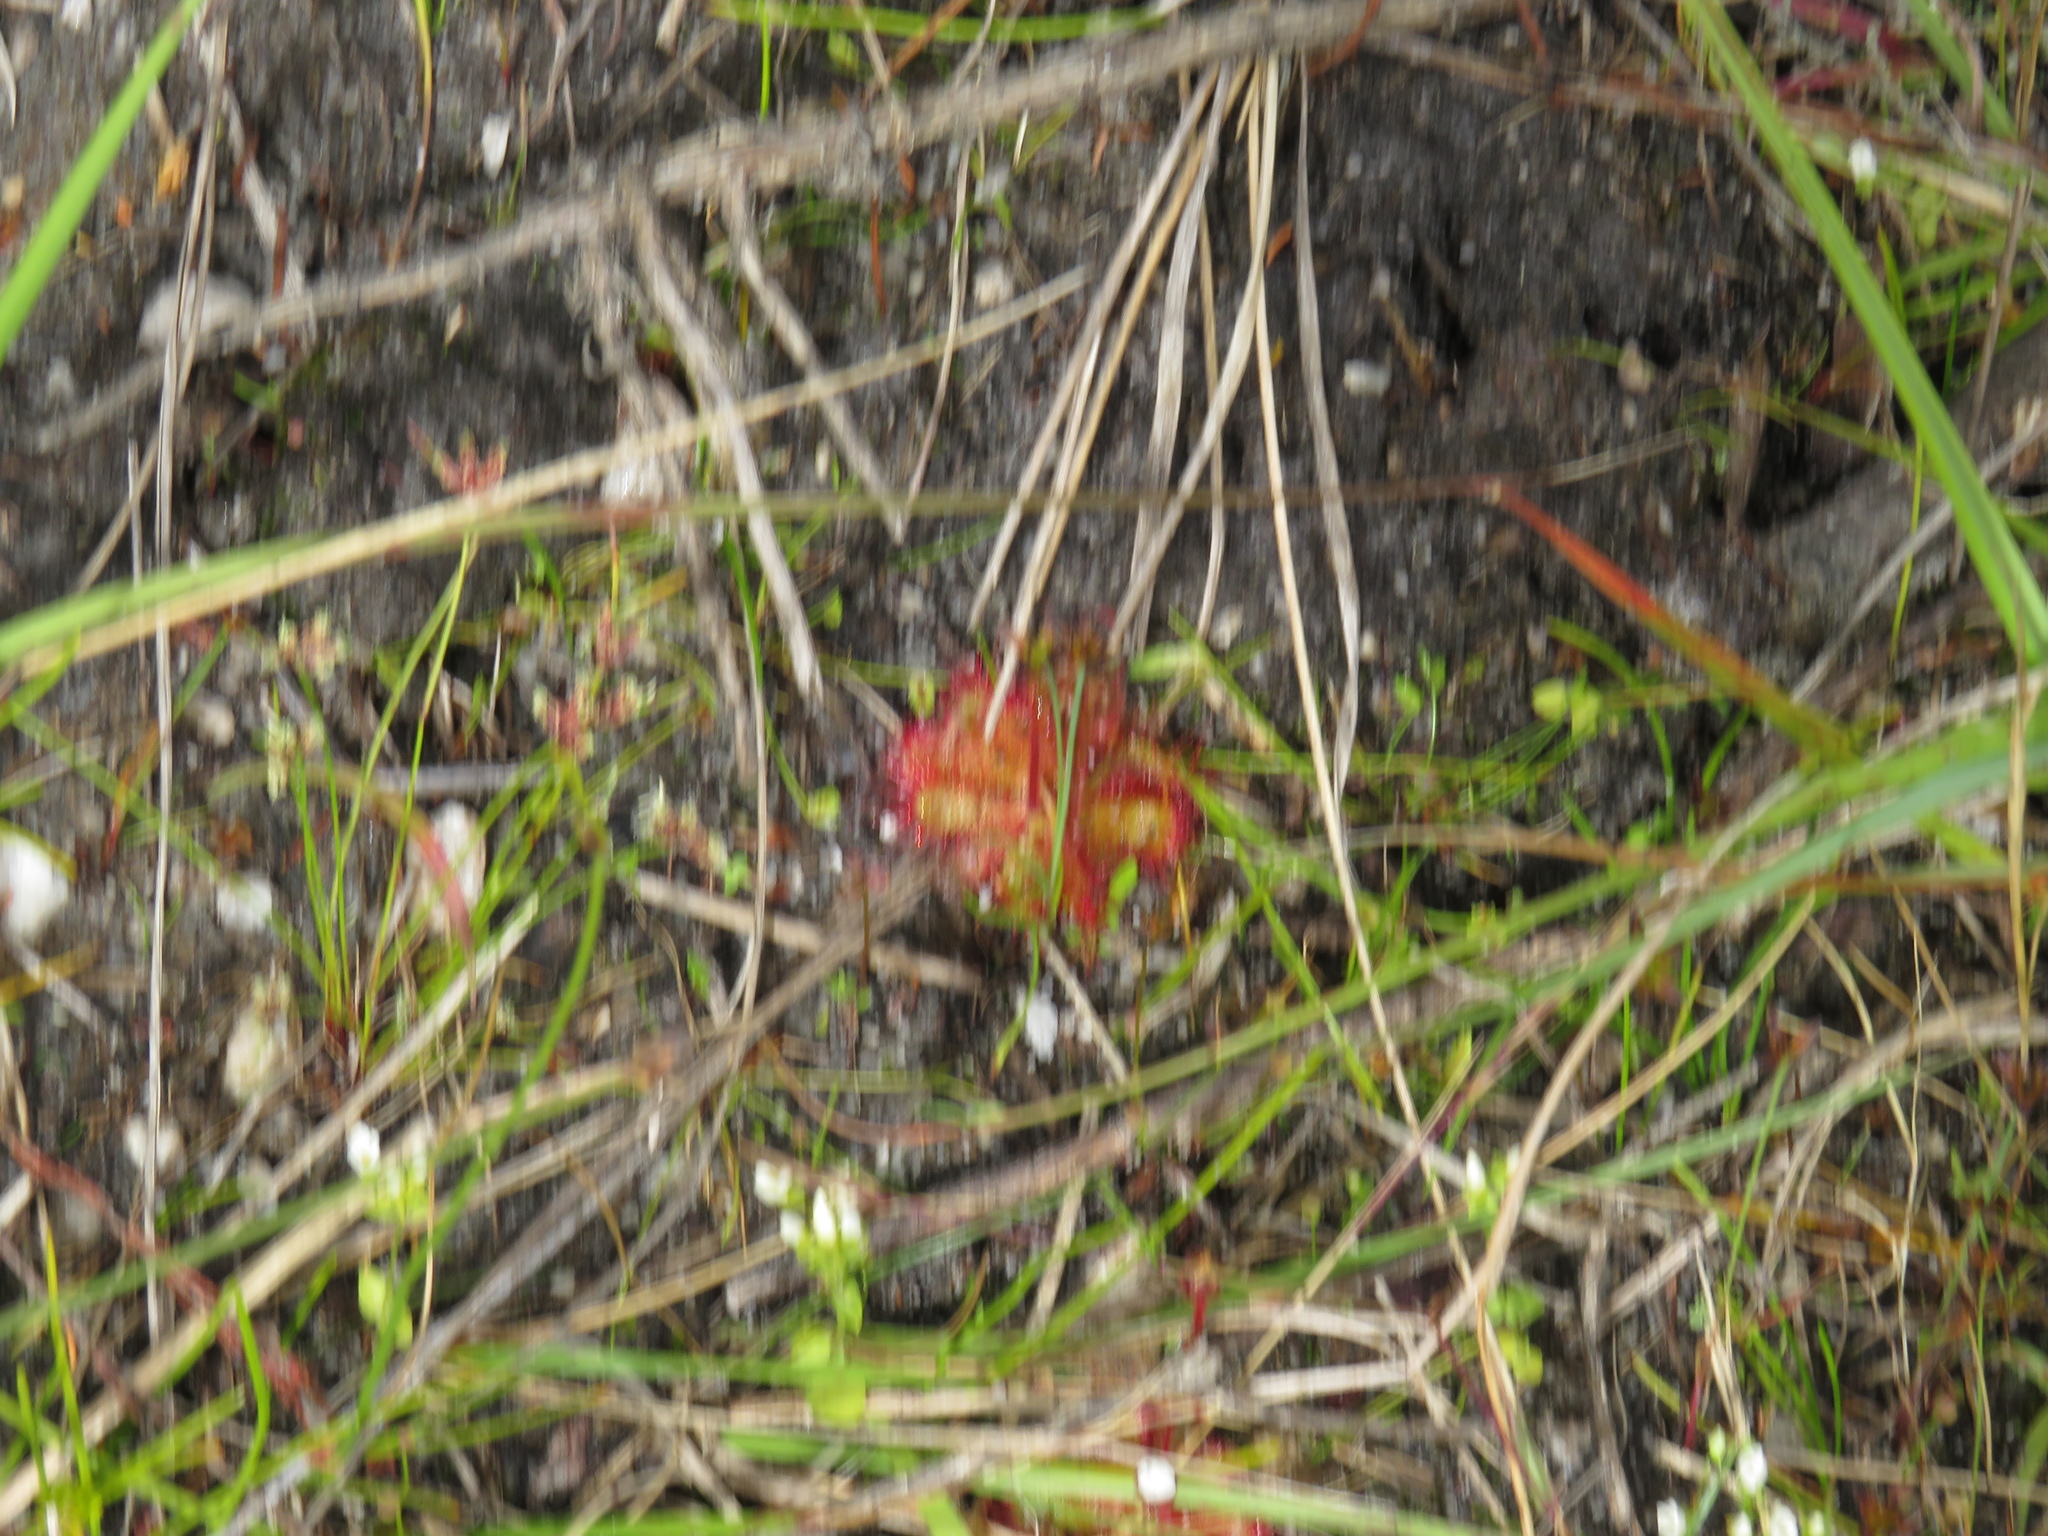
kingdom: Plantae
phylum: Tracheophyta
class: Magnoliopsida
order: Caryophyllales
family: Droseraceae
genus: Drosera
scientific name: Drosera trinervia
